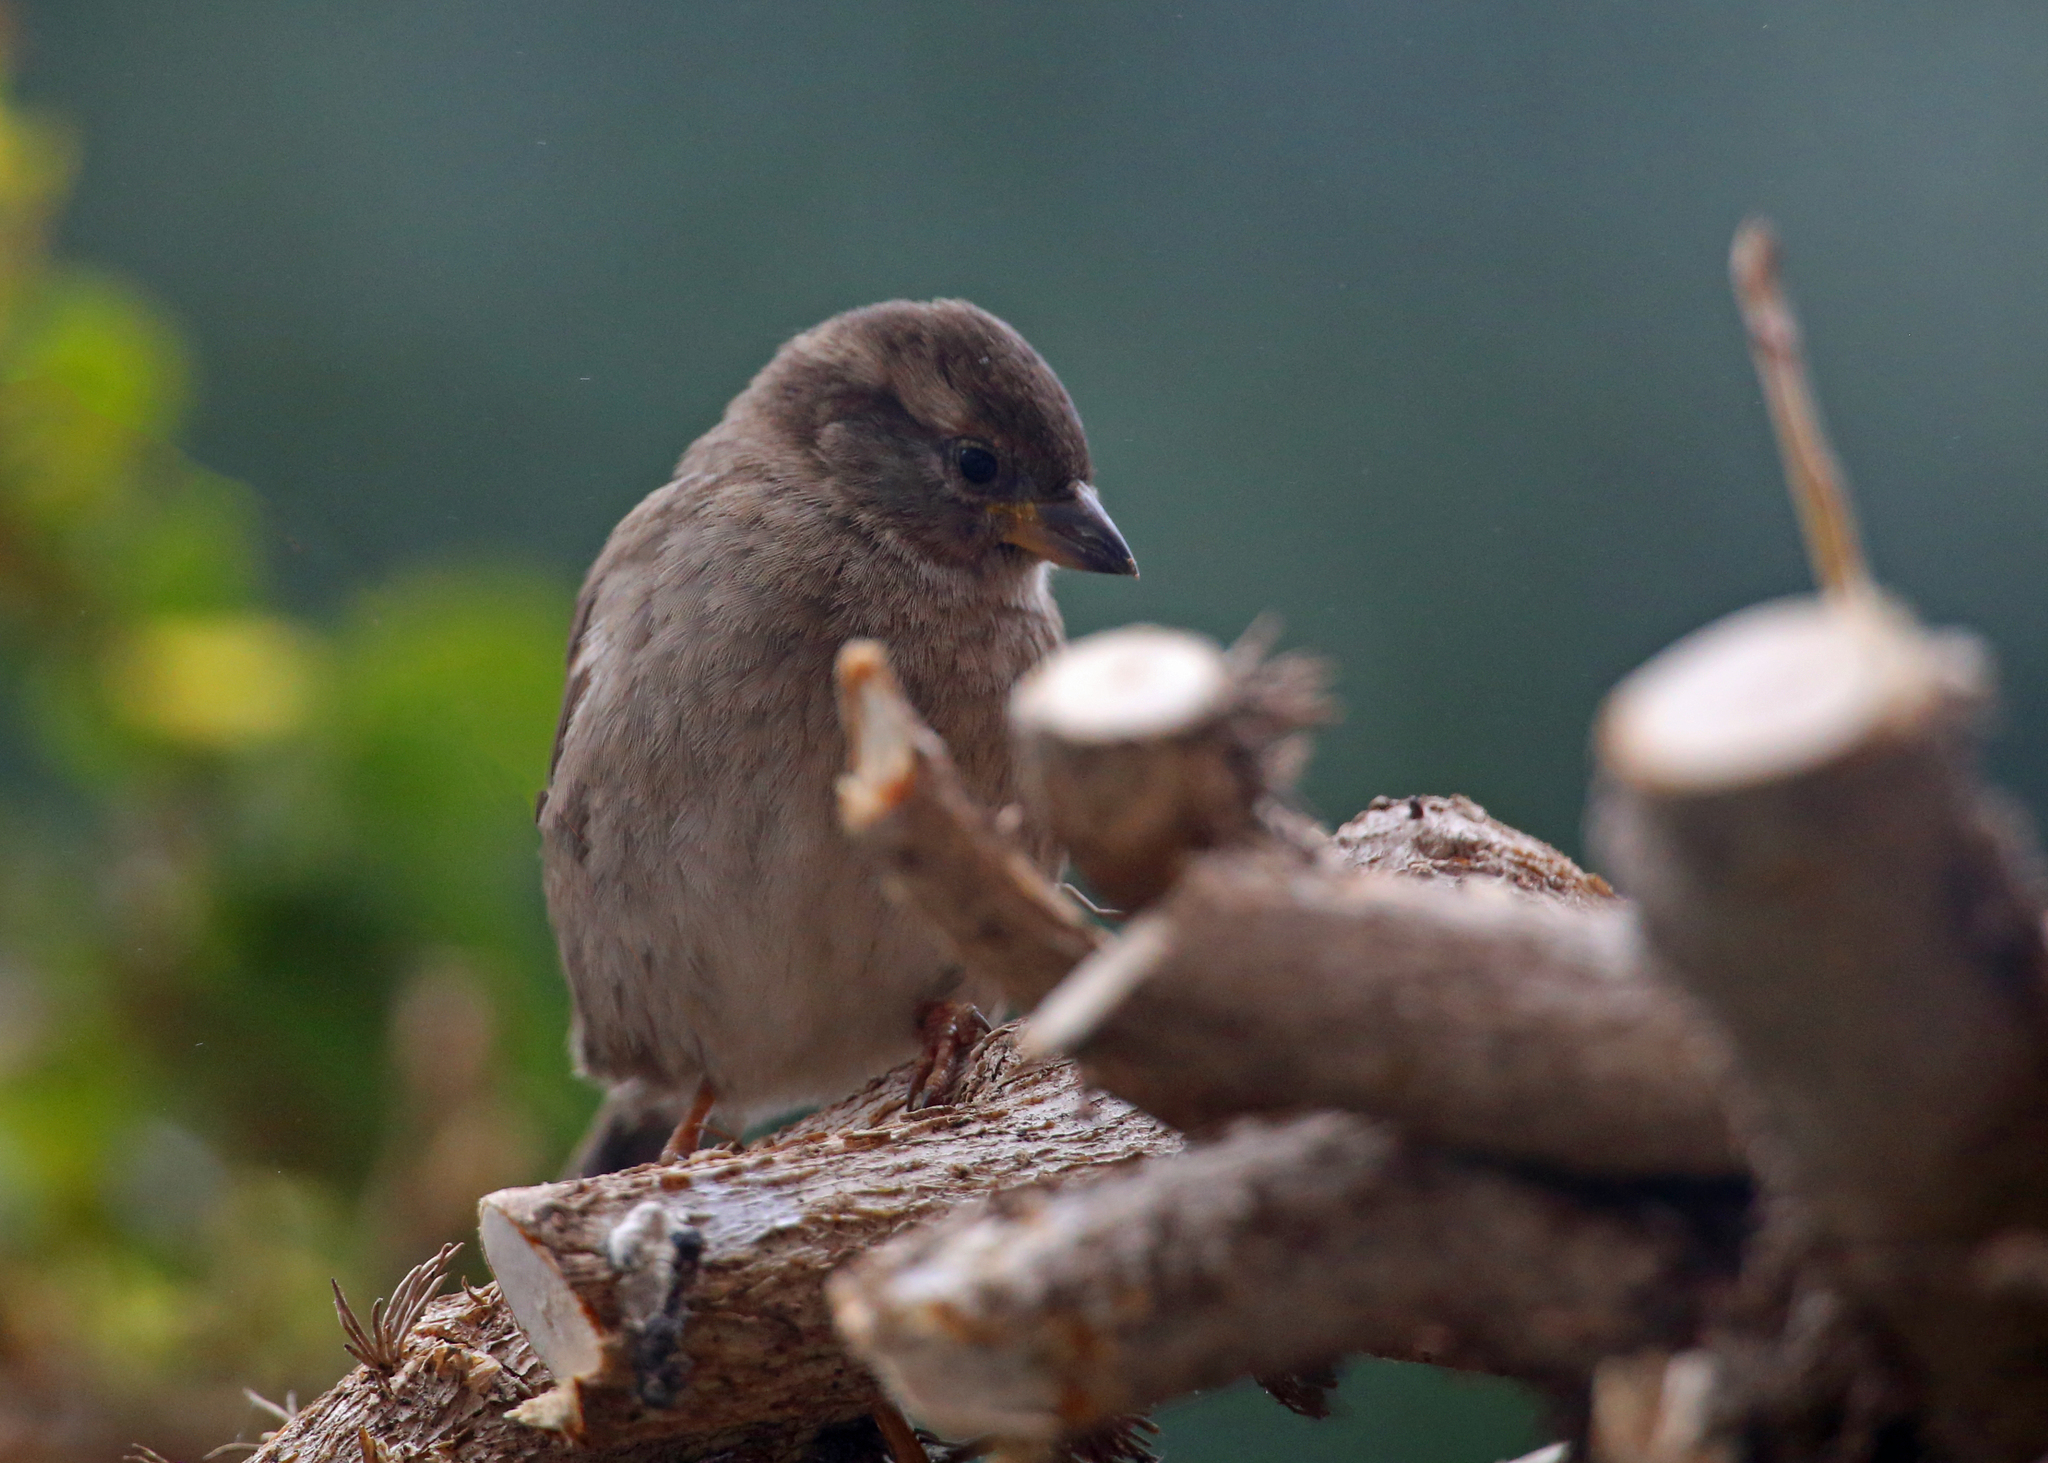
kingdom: Animalia
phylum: Chordata
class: Aves
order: Passeriformes
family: Passeridae
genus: Passer
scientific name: Passer domesticus
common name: House sparrow
